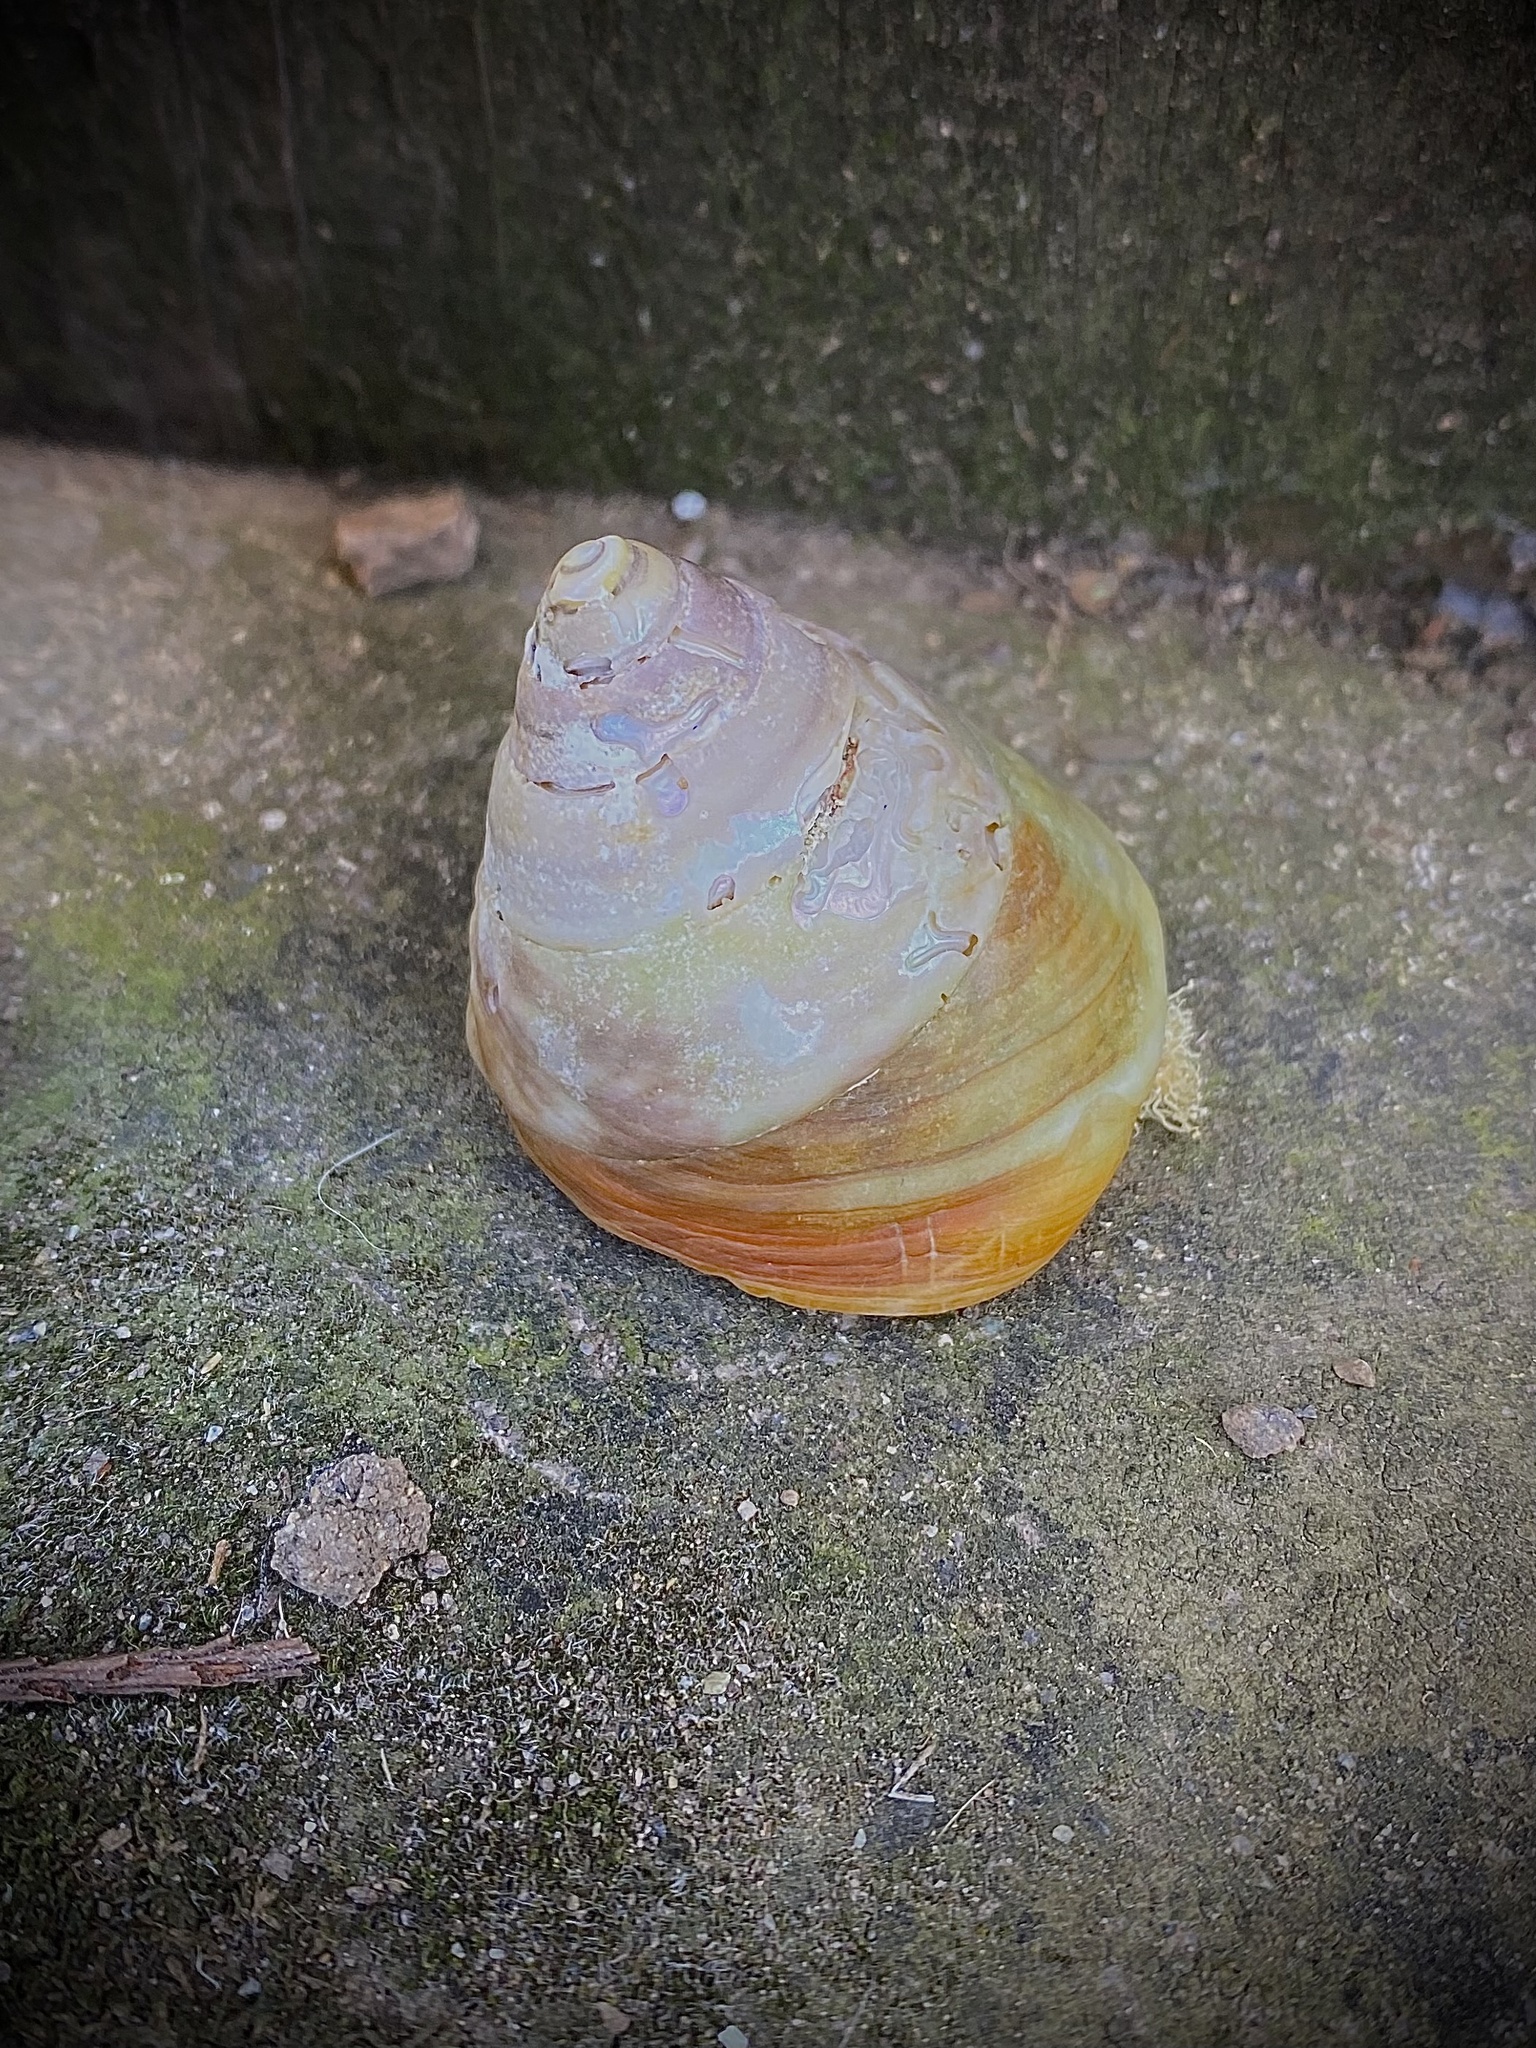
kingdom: Animalia
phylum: Mollusca
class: Gastropoda
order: Trochida
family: Tegulidae
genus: Tegula
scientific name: Tegula montereyi
